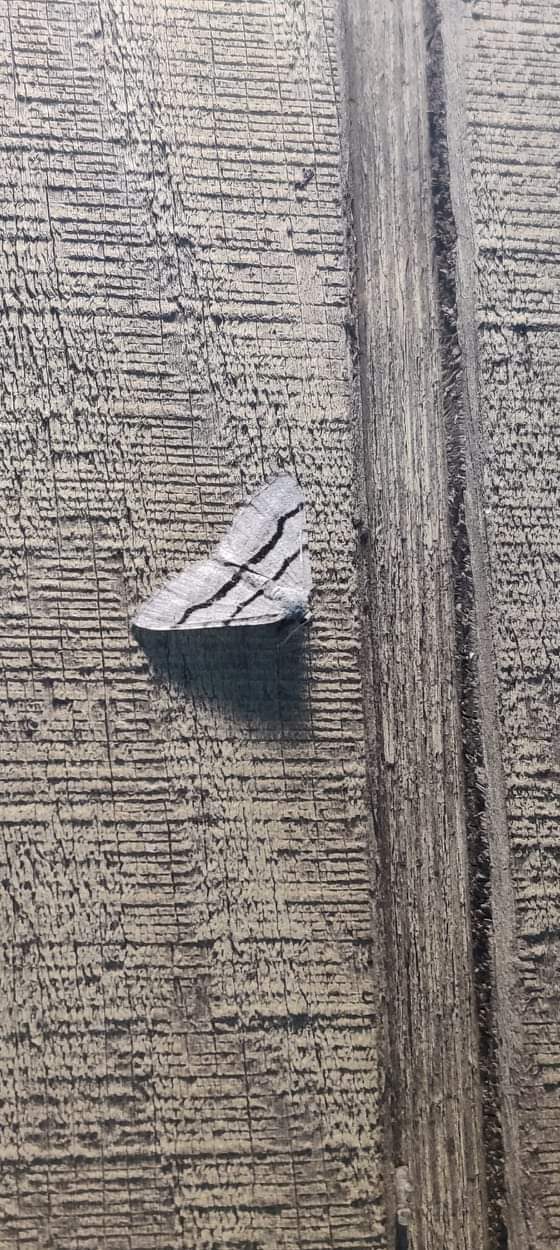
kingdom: Animalia
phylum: Arthropoda
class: Insecta
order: Lepidoptera
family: Geometridae
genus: Digrammia
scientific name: Digrammia continuata
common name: Curve-lined angle
